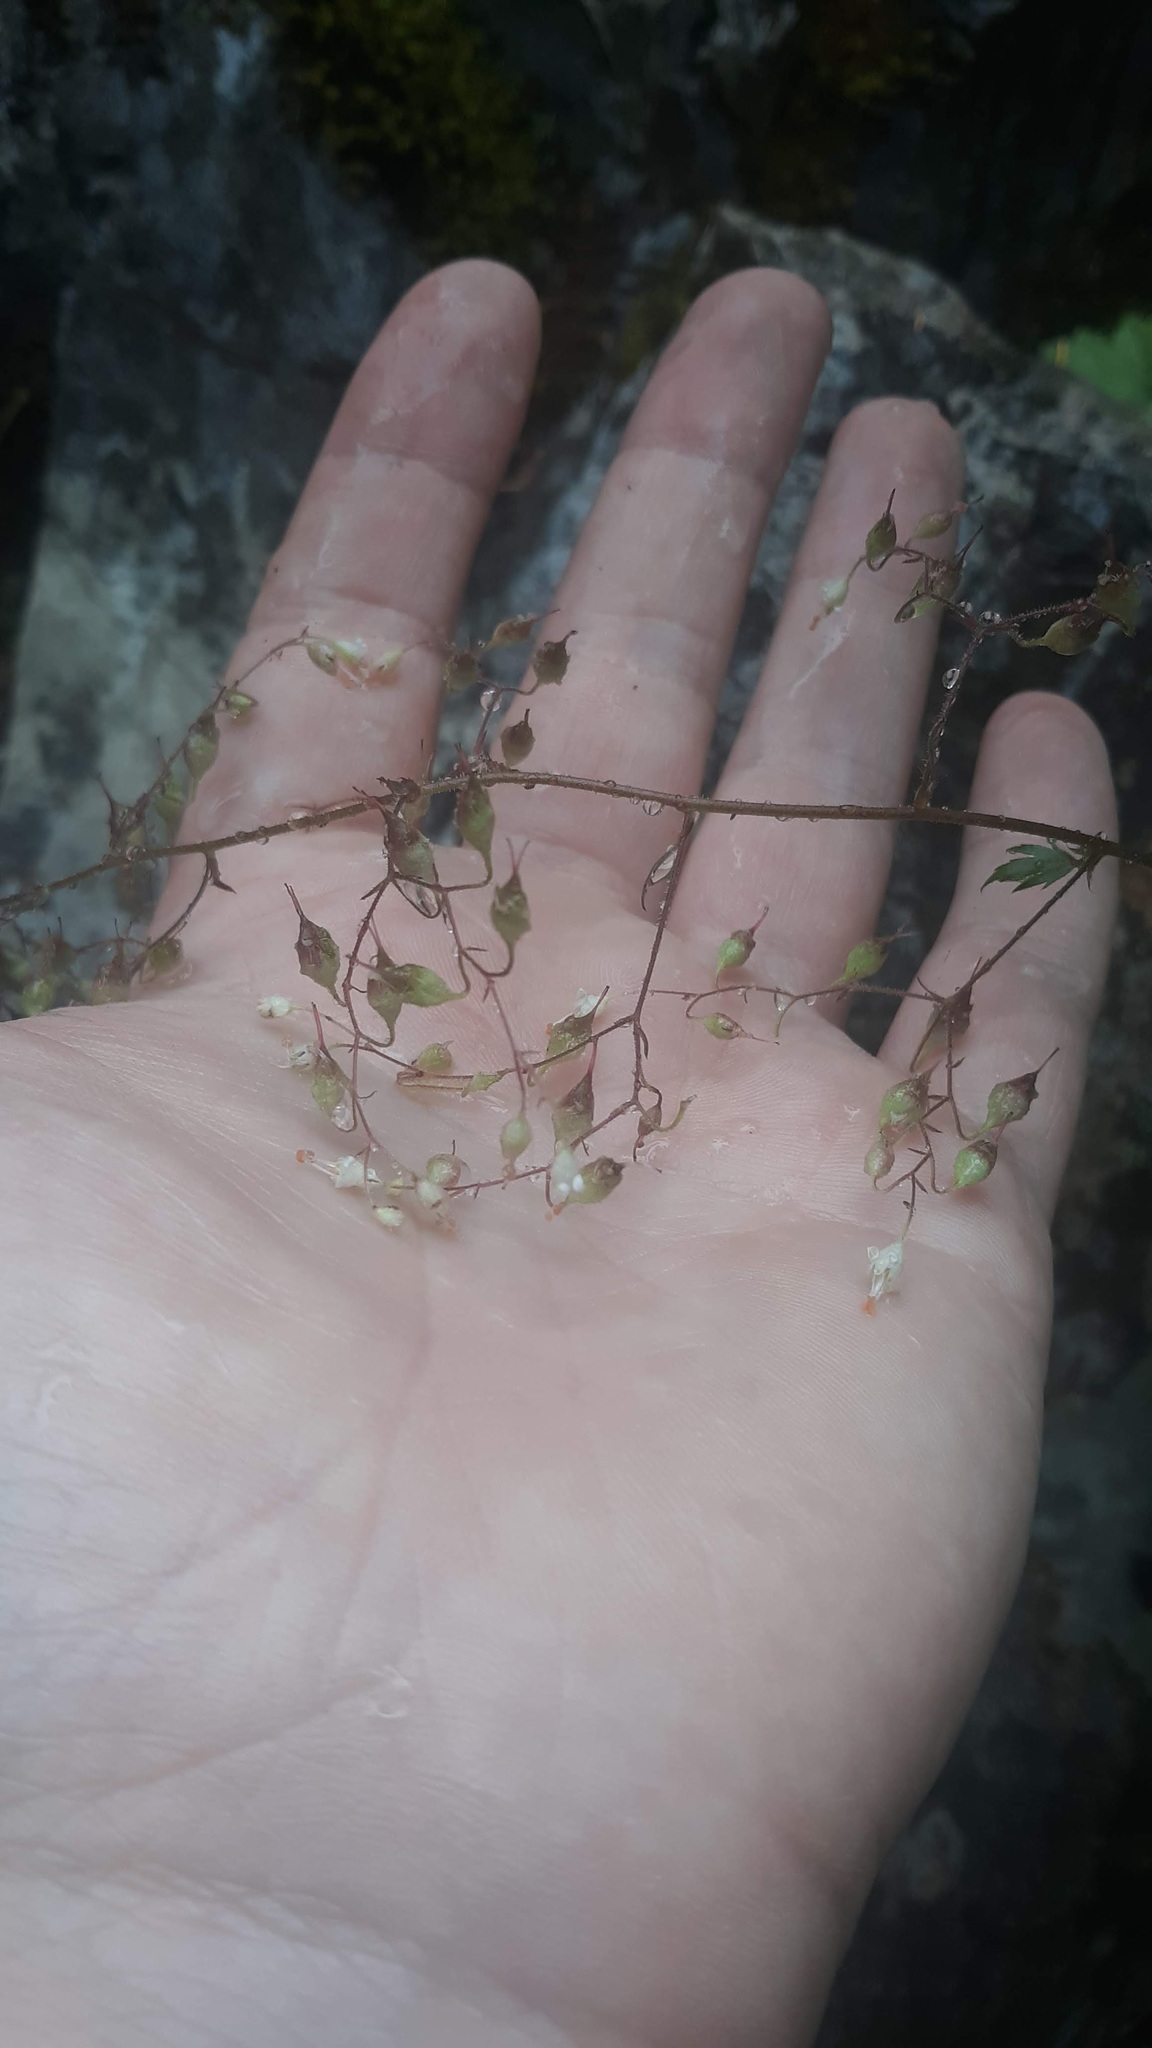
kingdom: Plantae
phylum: Tracheophyta
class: Magnoliopsida
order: Saxifragales
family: Saxifragaceae
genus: Heuchera
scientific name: Heuchera glabra
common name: Alpine alumroot
